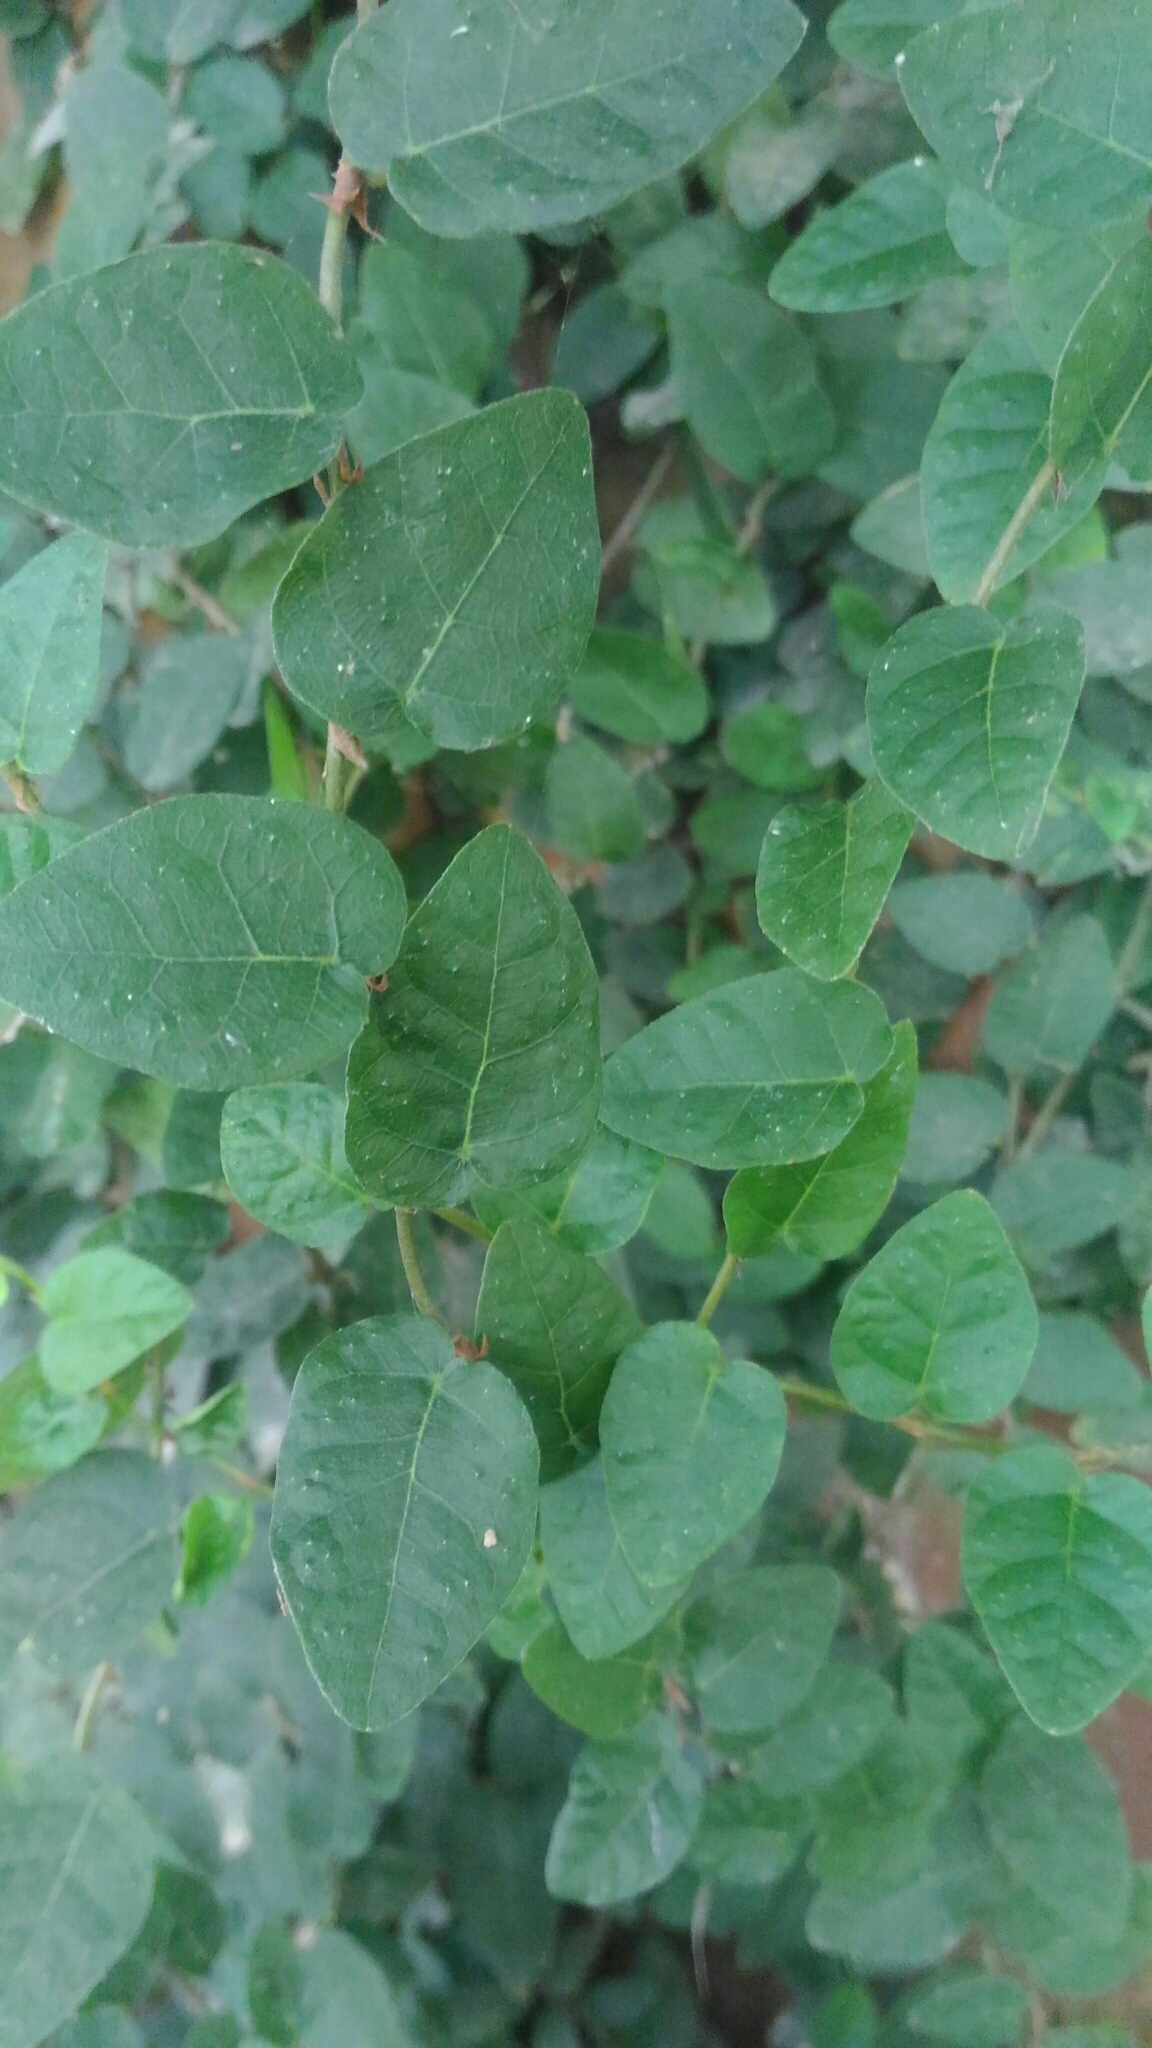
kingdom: Plantae
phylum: Tracheophyta
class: Magnoliopsida
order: Rosales
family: Moraceae
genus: Ficus
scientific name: Ficus pumila
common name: Climbingfig
